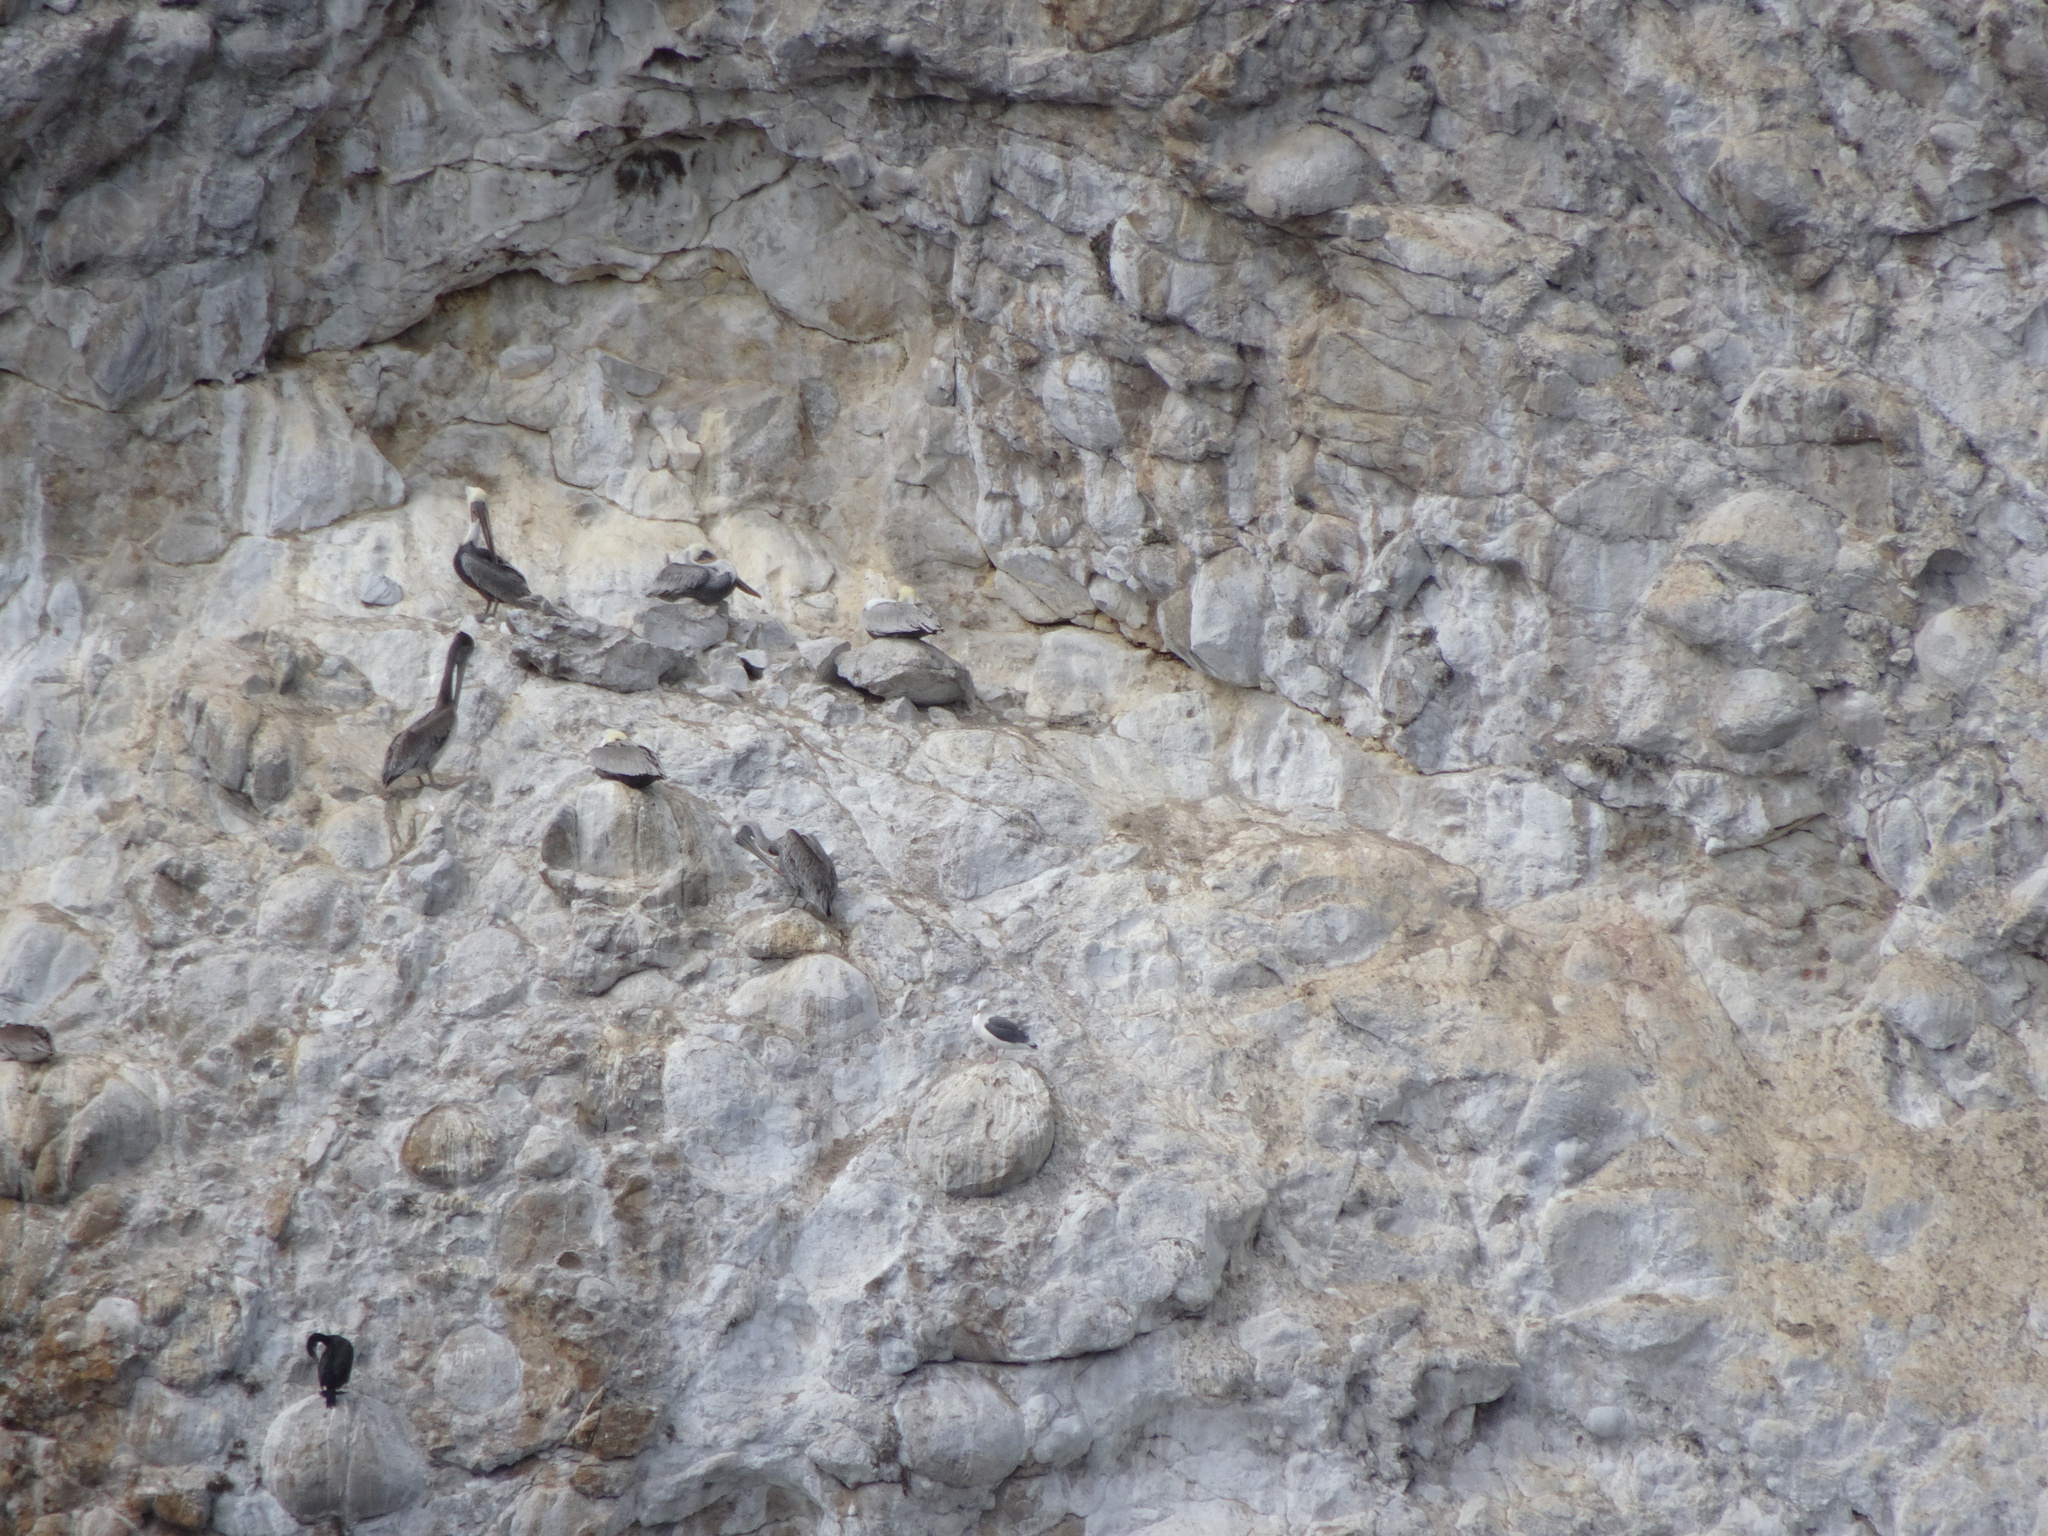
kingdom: Animalia
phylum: Chordata
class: Aves
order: Pelecaniformes
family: Pelecanidae
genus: Pelecanus
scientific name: Pelecanus occidentalis
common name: Brown pelican
